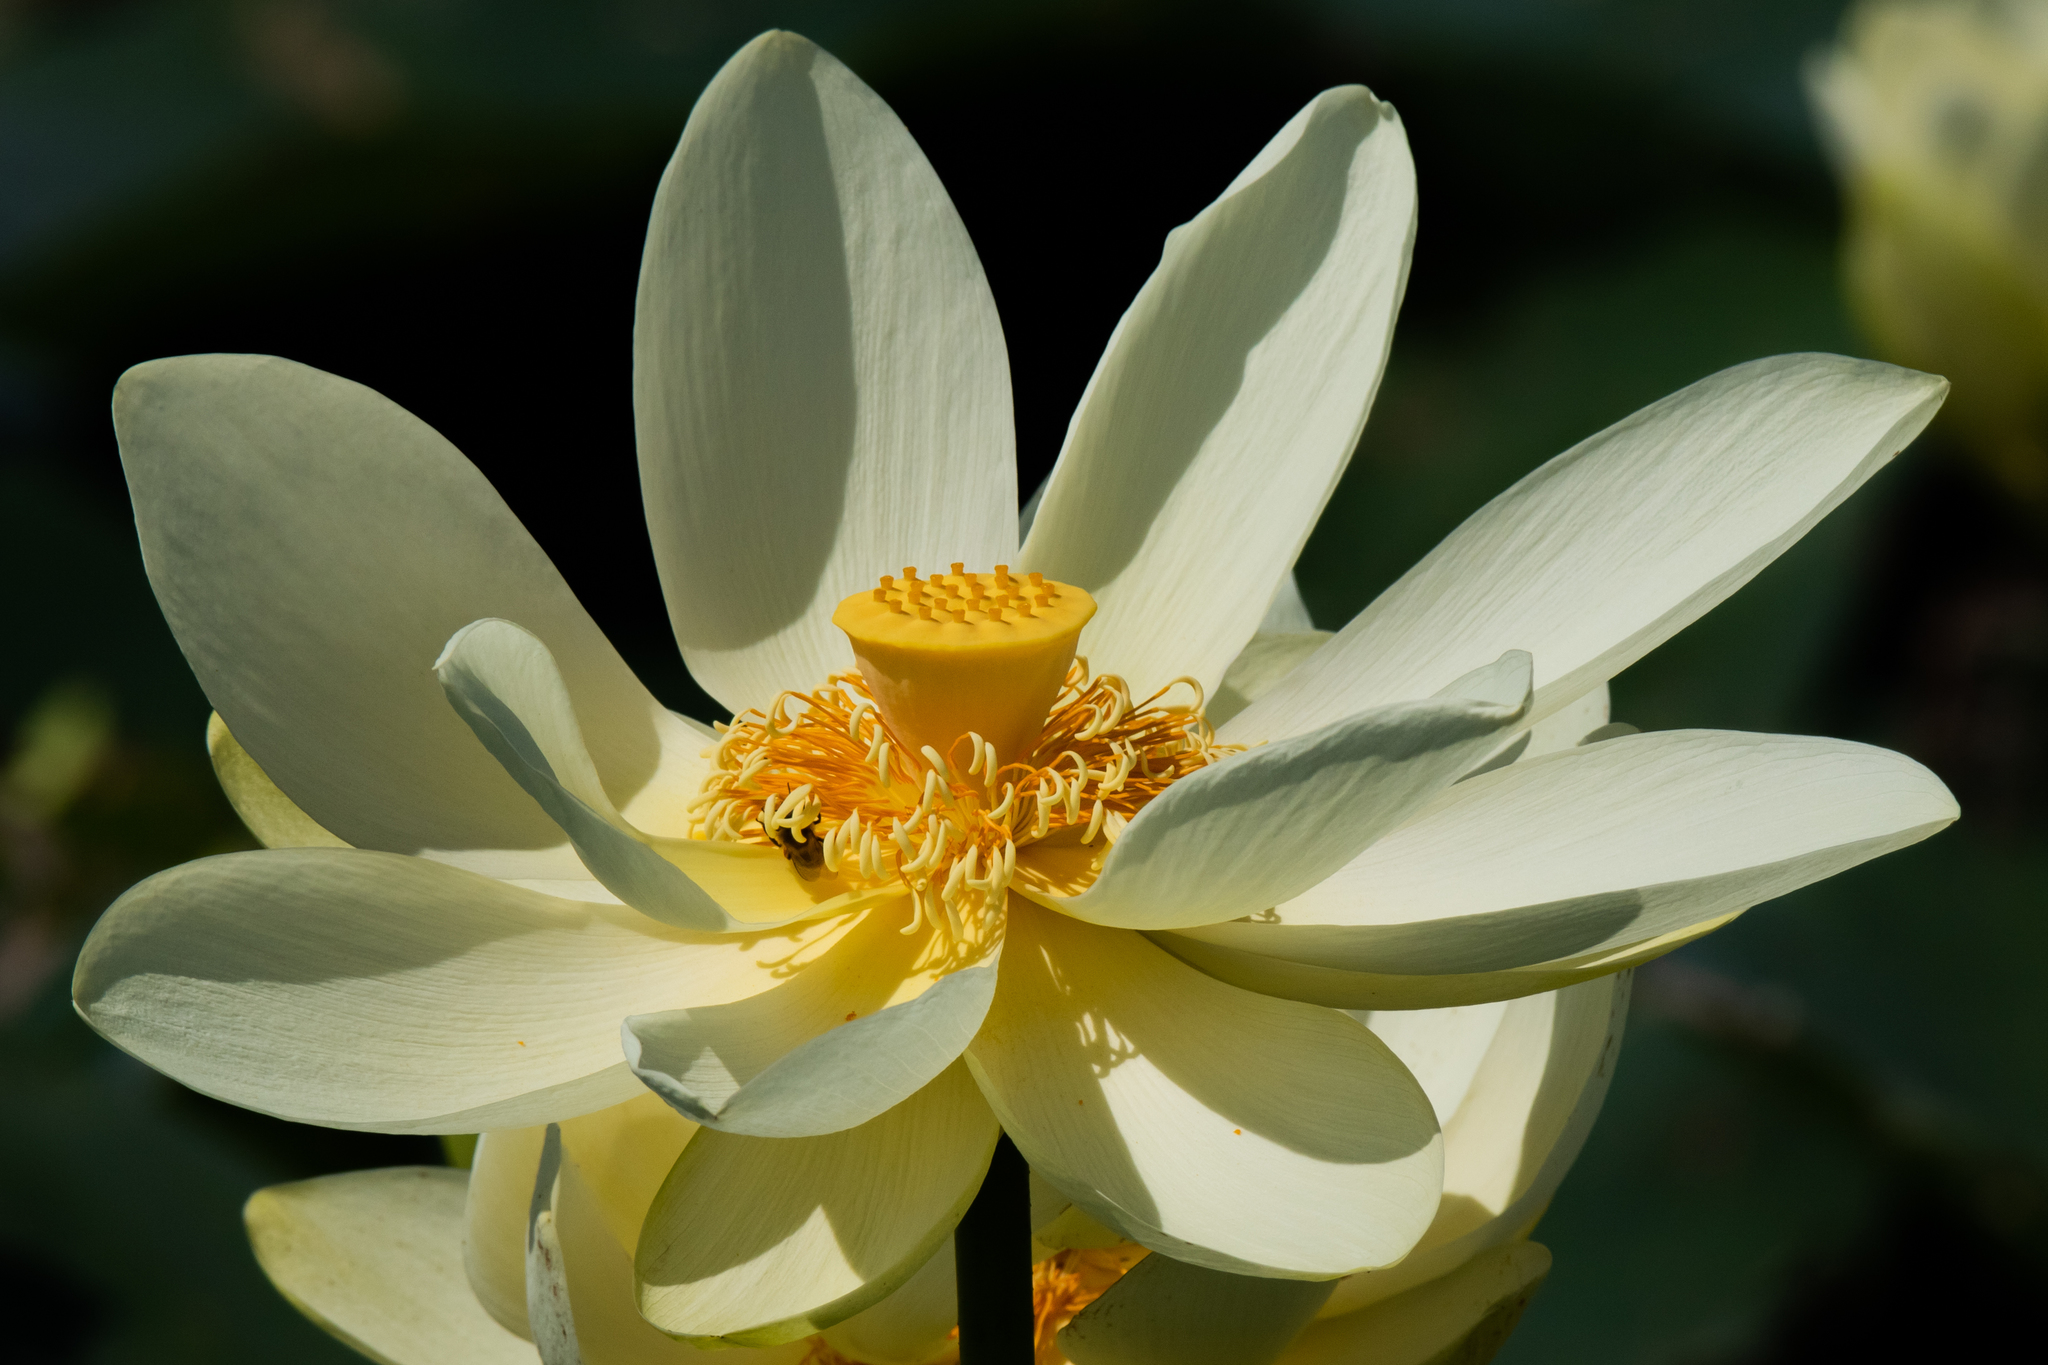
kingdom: Plantae
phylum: Tracheophyta
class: Magnoliopsida
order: Proteales
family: Nelumbonaceae
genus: Nelumbo
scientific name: Nelumbo lutea
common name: American lotus
